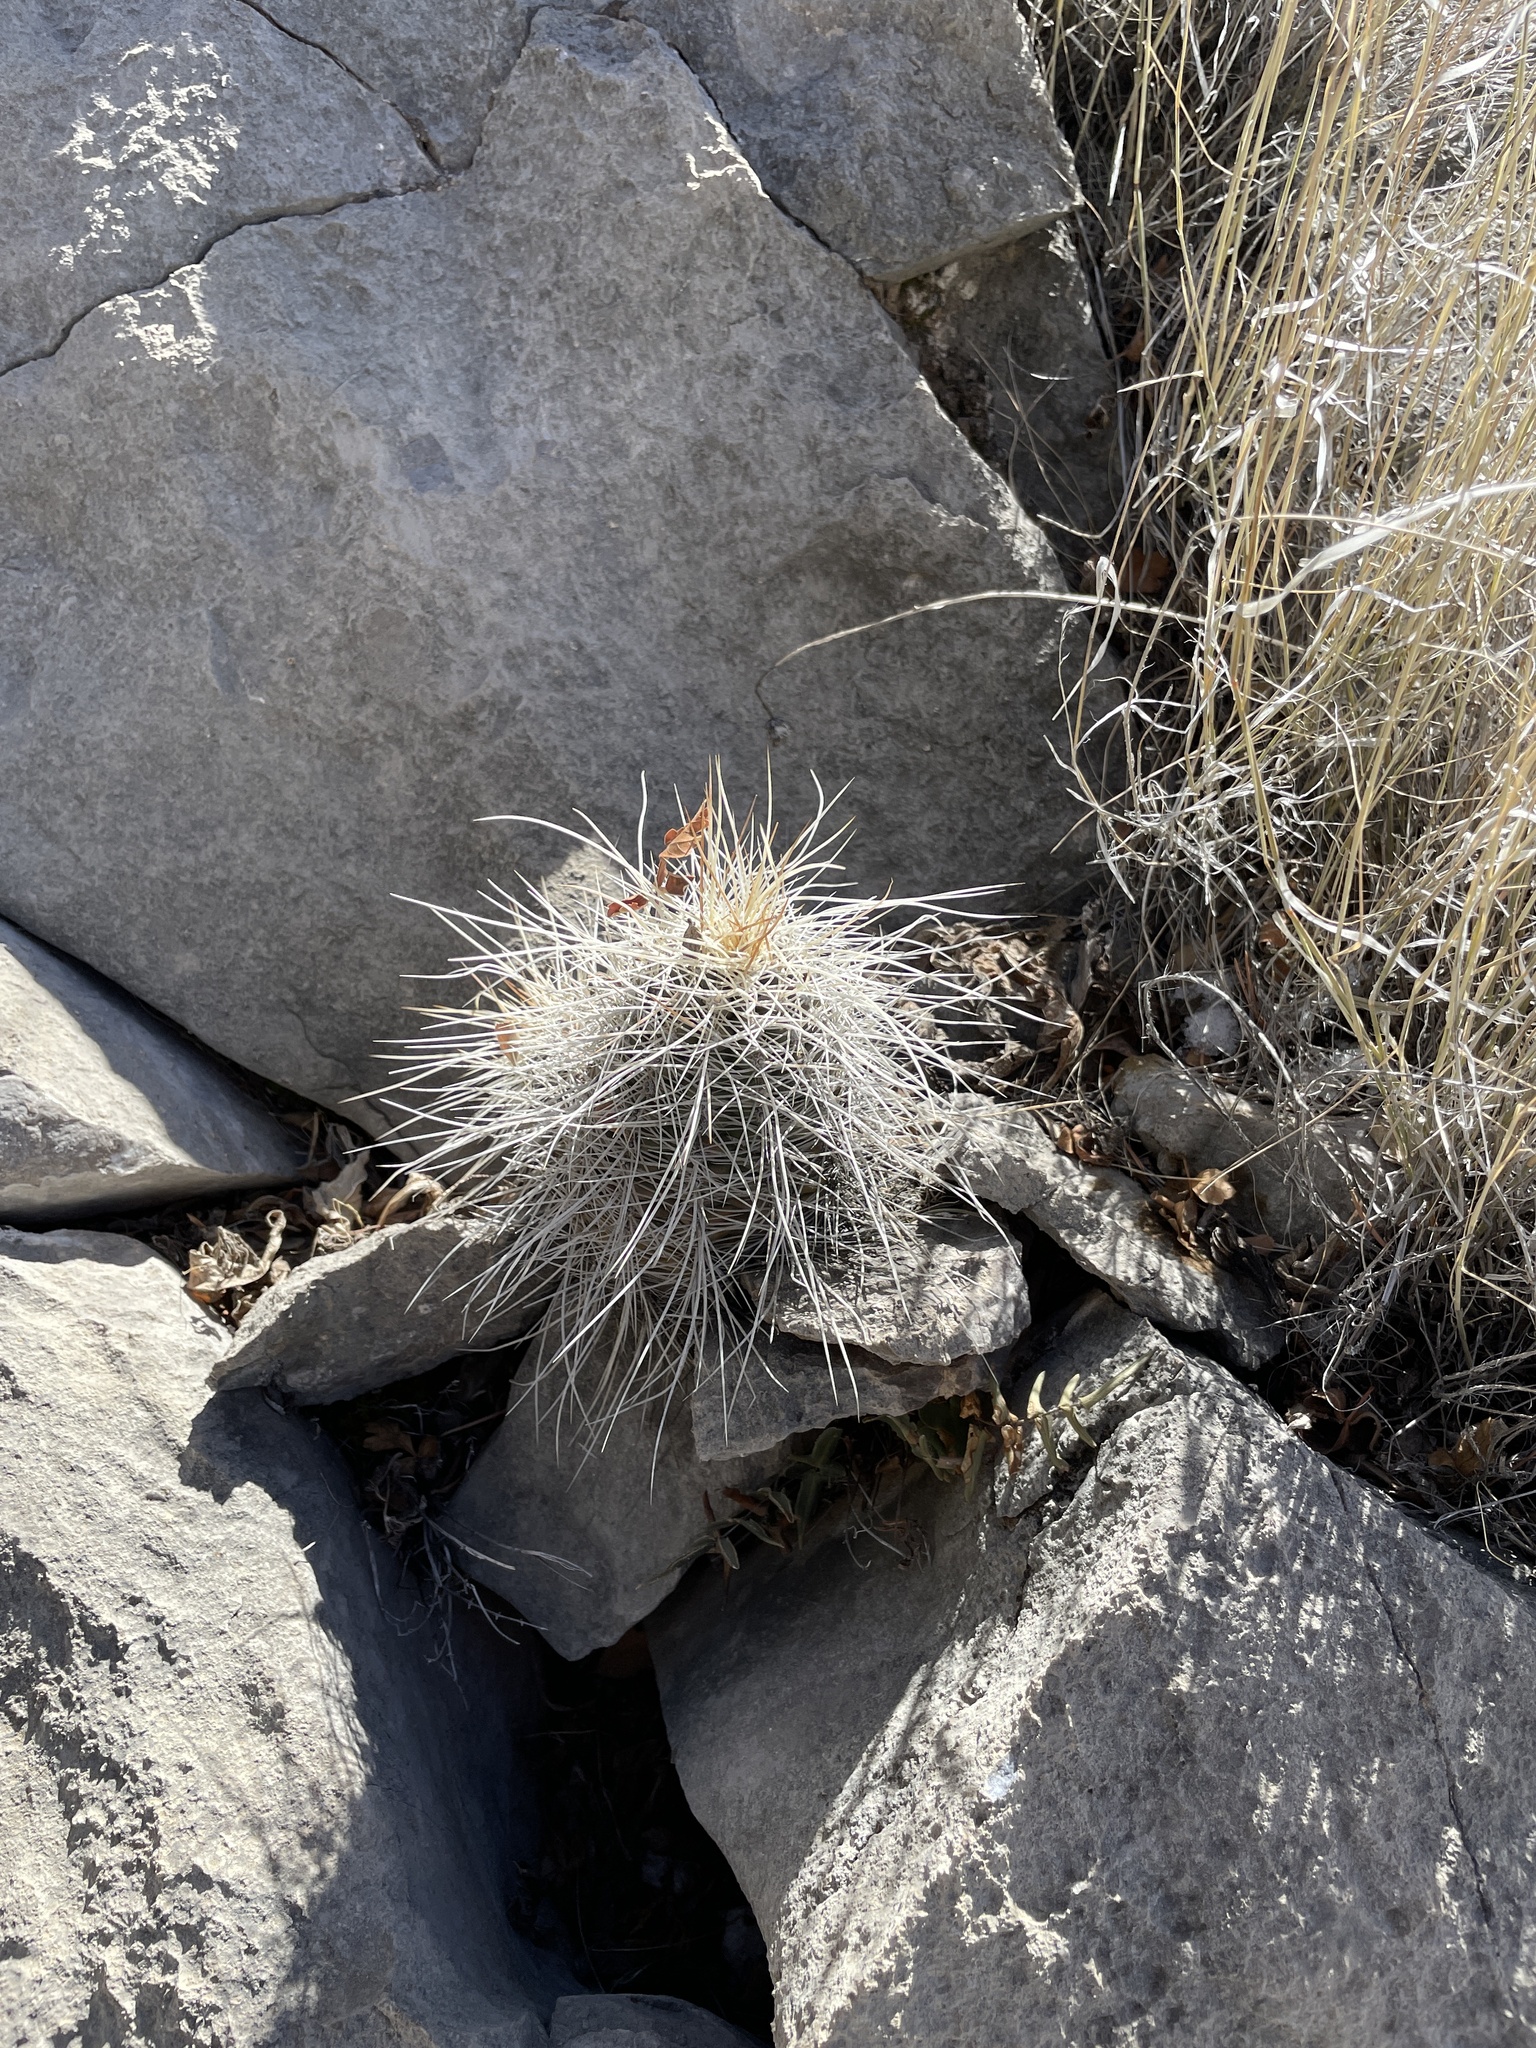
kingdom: Plantae
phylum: Tracheophyta
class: Magnoliopsida
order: Caryophyllales
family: Cactaceae
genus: Echinocereus
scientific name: Echinocereus coccineus
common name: Scarlet hedgehog cactus
